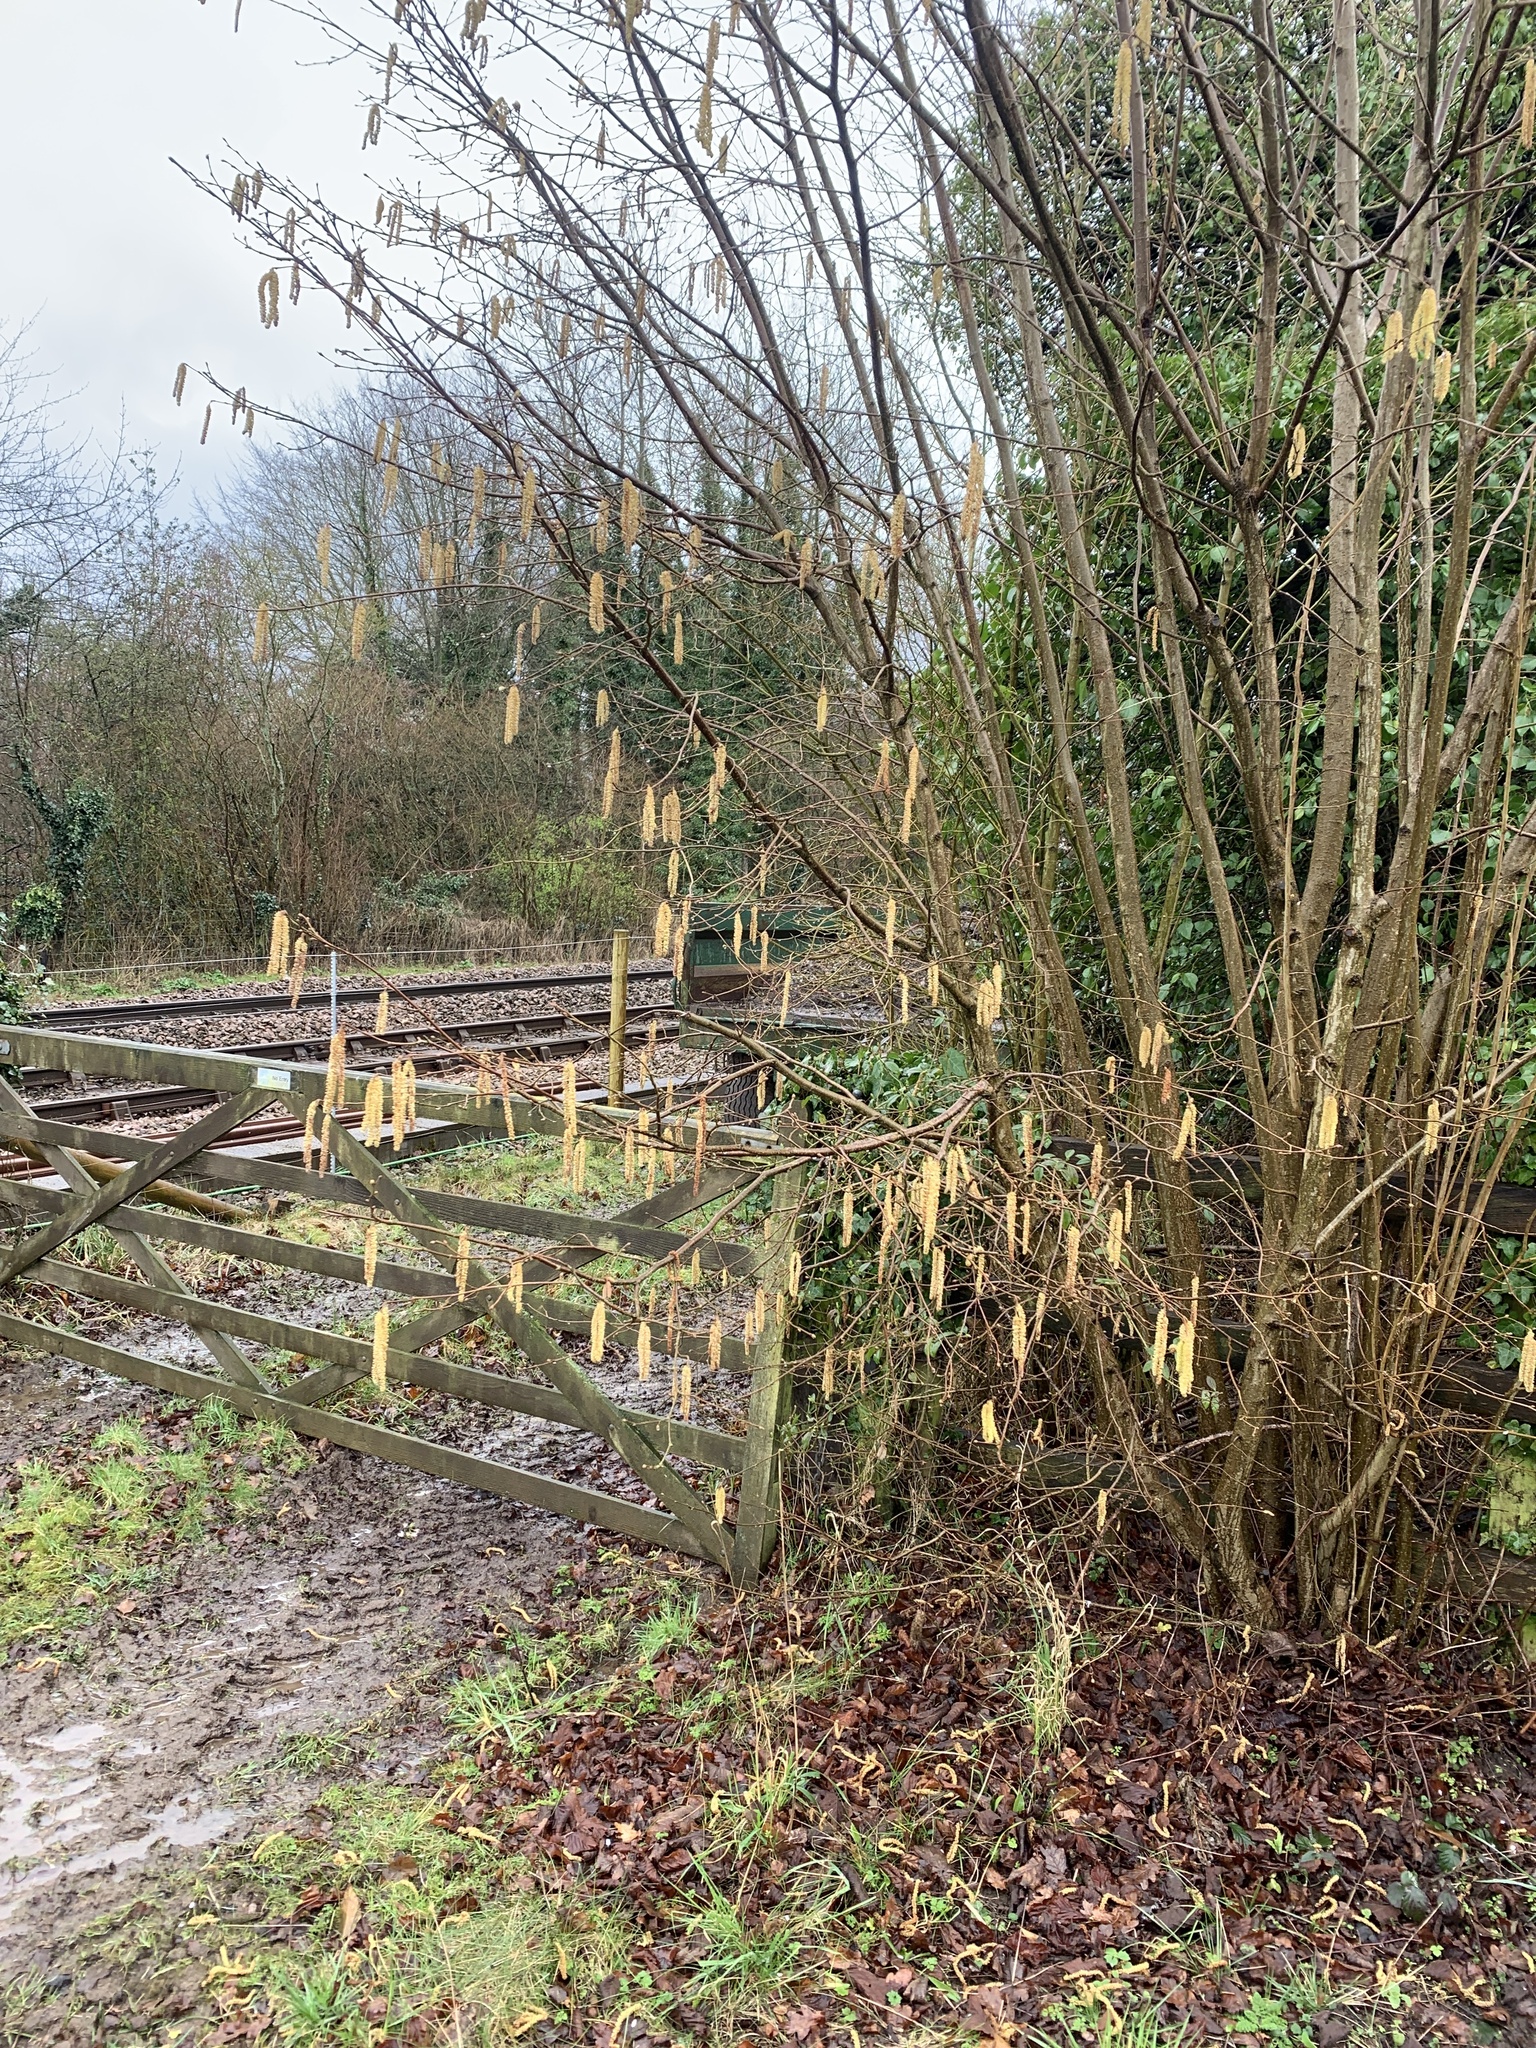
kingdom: Plantae
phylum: Tracheophyta
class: Magnoliopsida
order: Fagales
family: Betulaceae
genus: Corylus
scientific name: Corylus avellana
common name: European hazel
